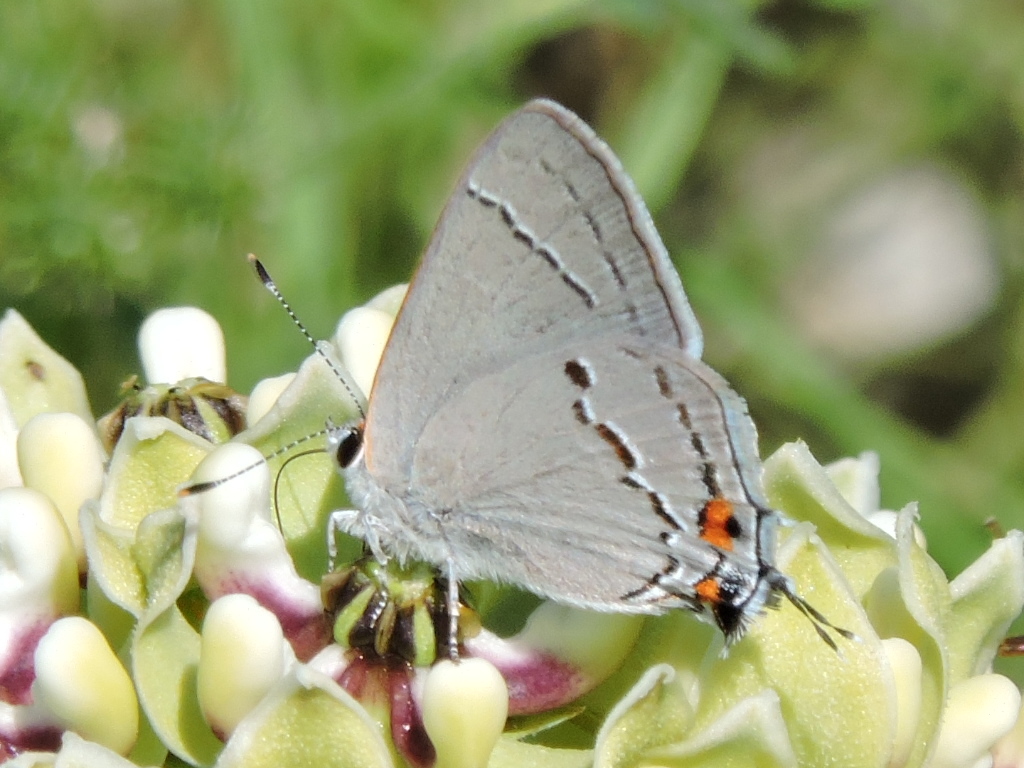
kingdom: Animalia
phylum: Arthropoda
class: Insecta
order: Lepidoptera
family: Lycaenidae
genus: Strymon
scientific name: Strymon melinus
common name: Gray hairstreak
